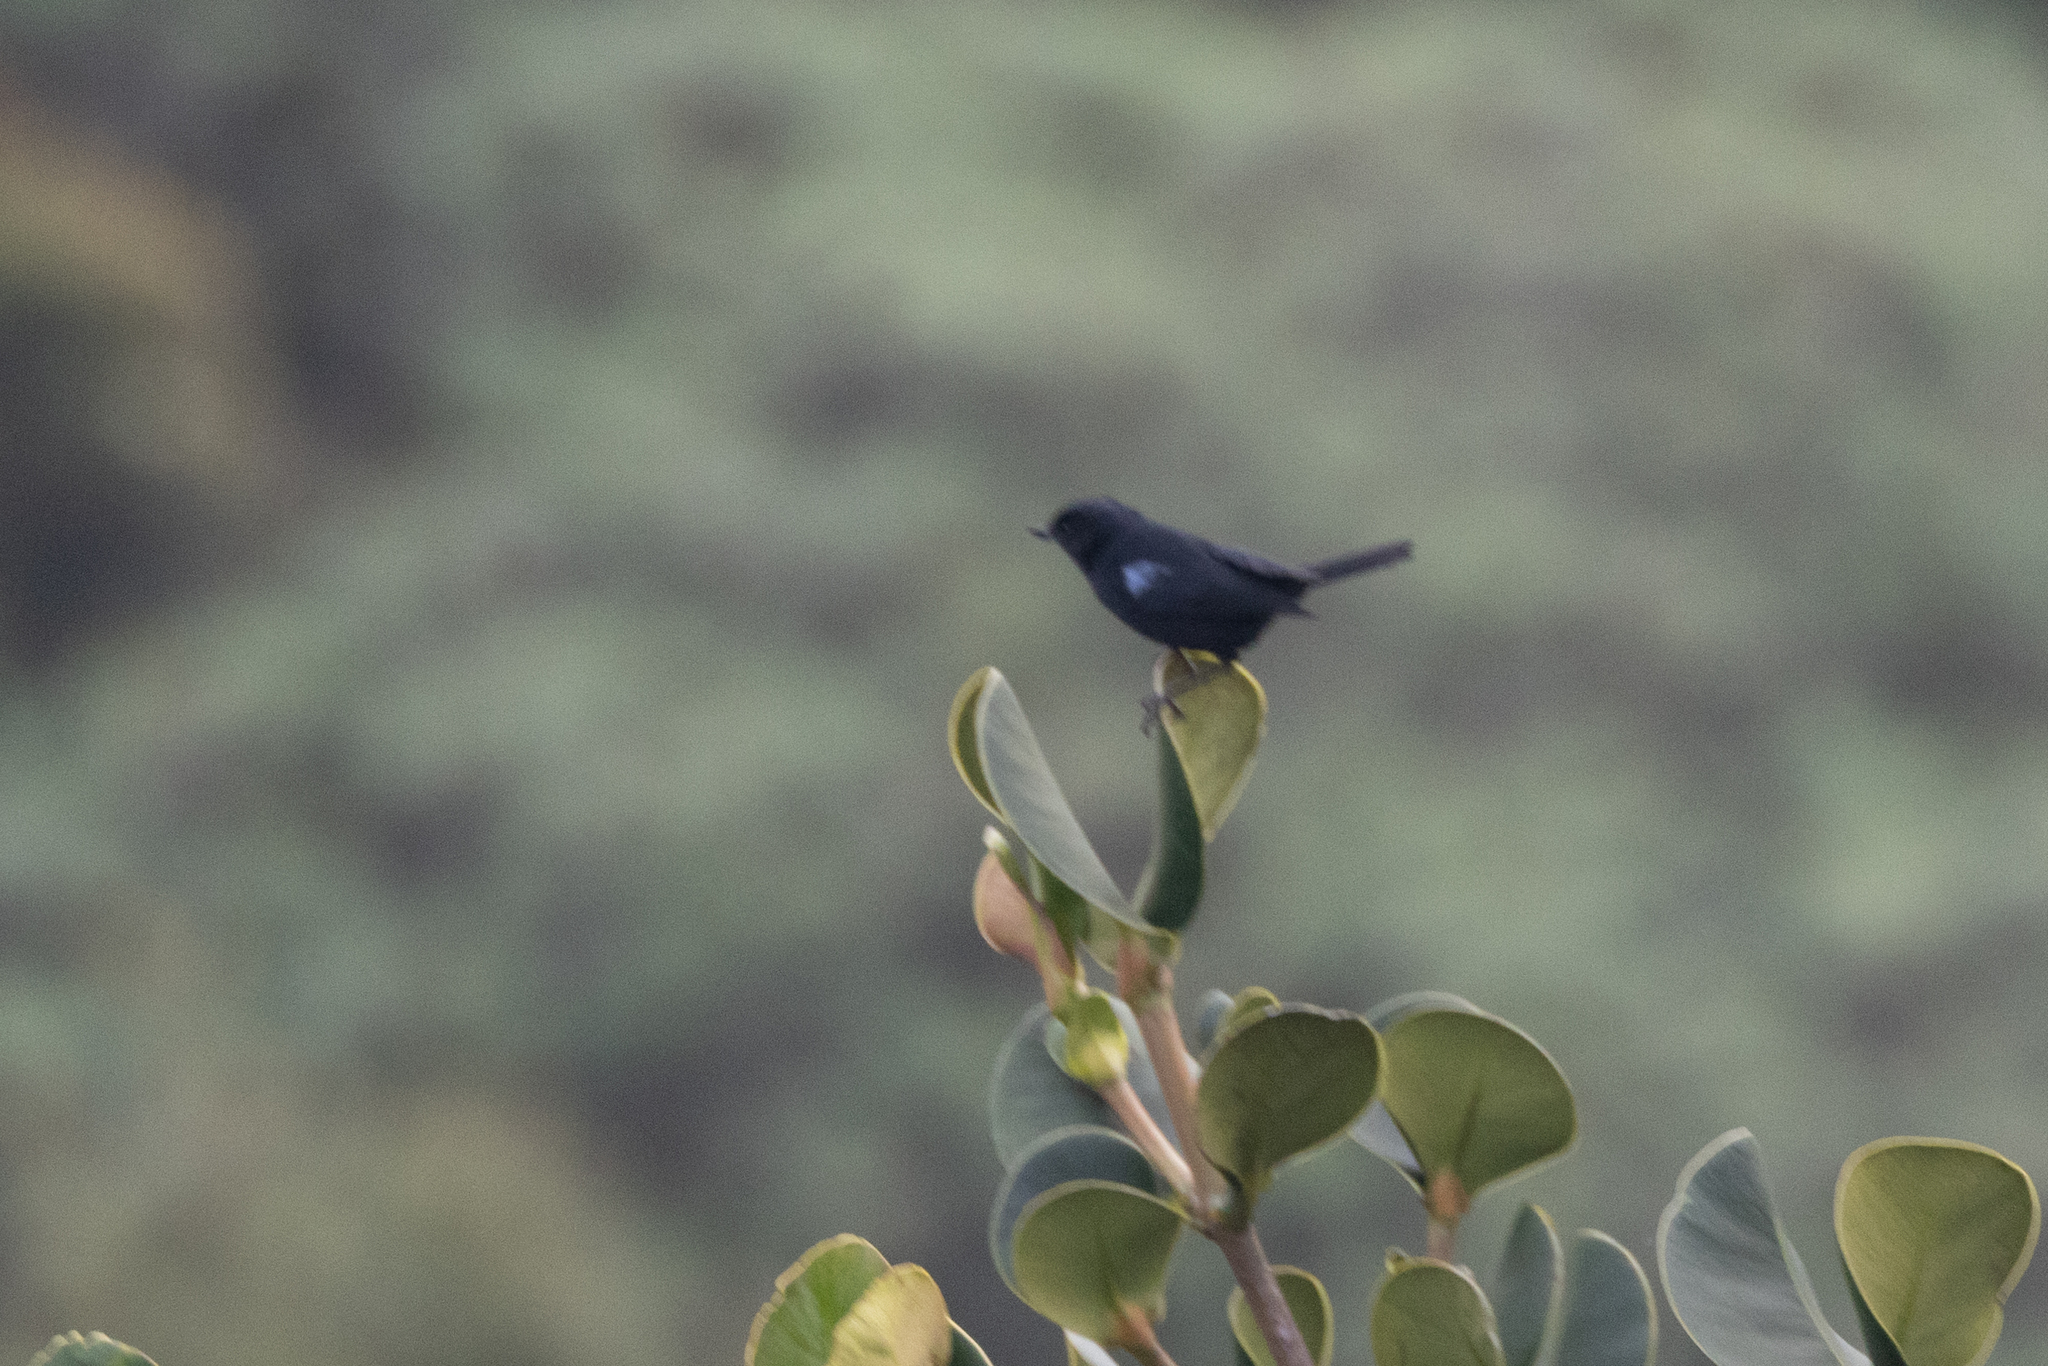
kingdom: Animalia
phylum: Chordata
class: Aves
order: Passeriformes
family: Thraupidae
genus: Diglossa
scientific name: Diglossa lafresnayii
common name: Glossy flowerpiercer
